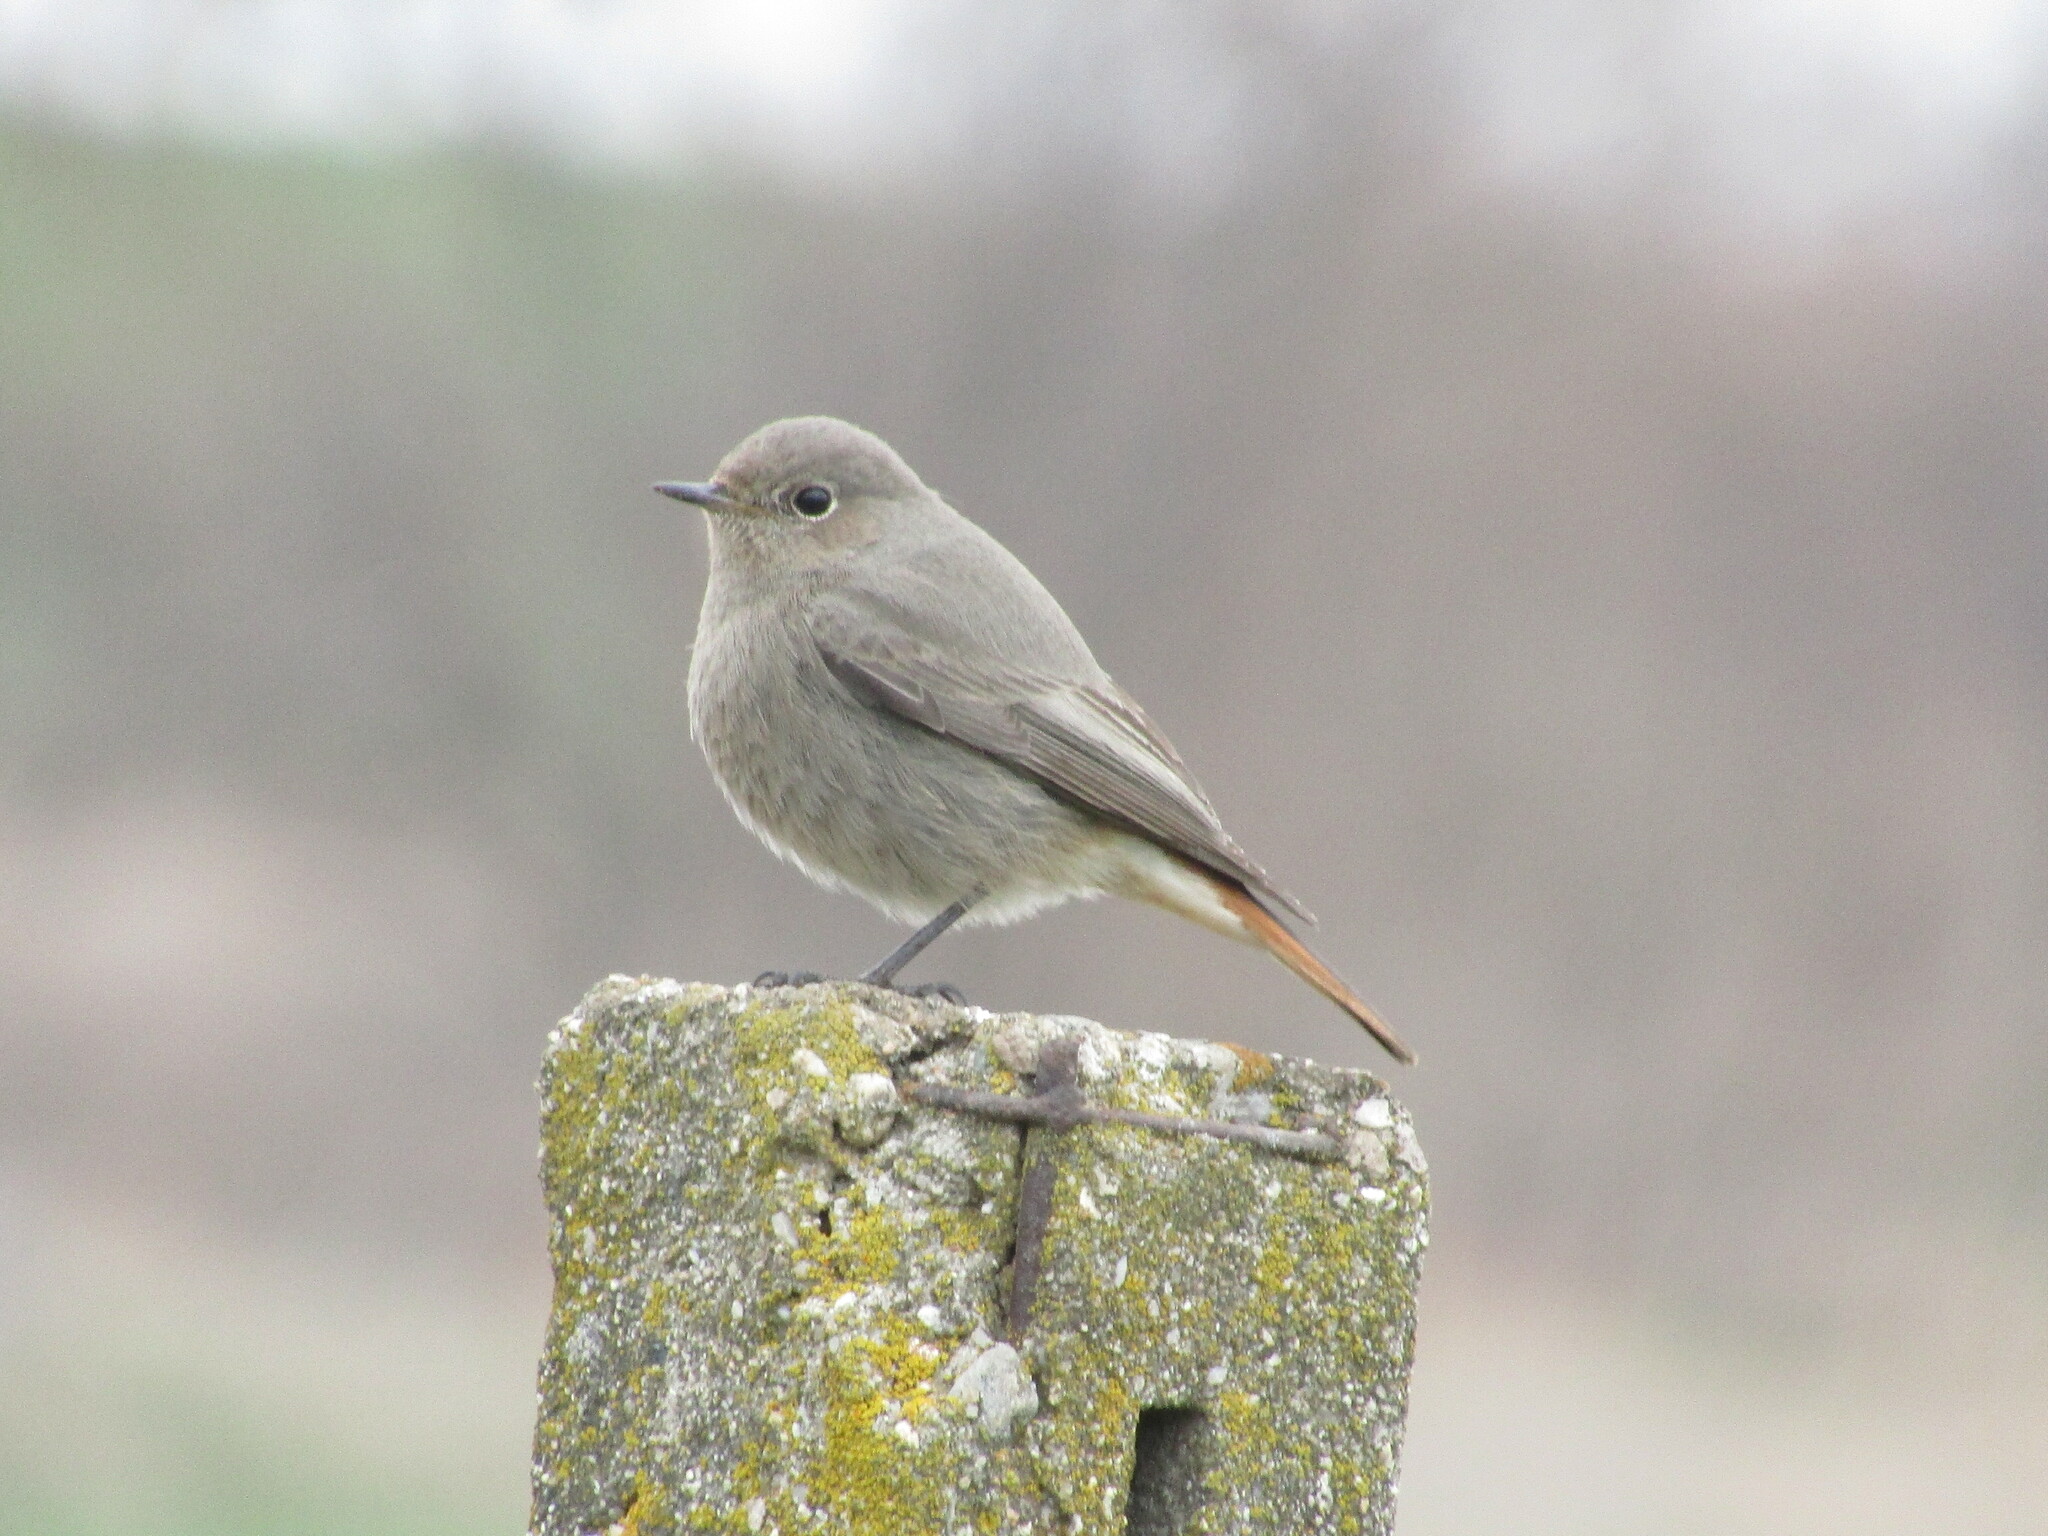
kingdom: Animalia
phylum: Chordata
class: Aves
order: Passeriformes
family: Muscicapidae
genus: Phoenicurus
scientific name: Phoenicurus ochruros
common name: Black redstart
